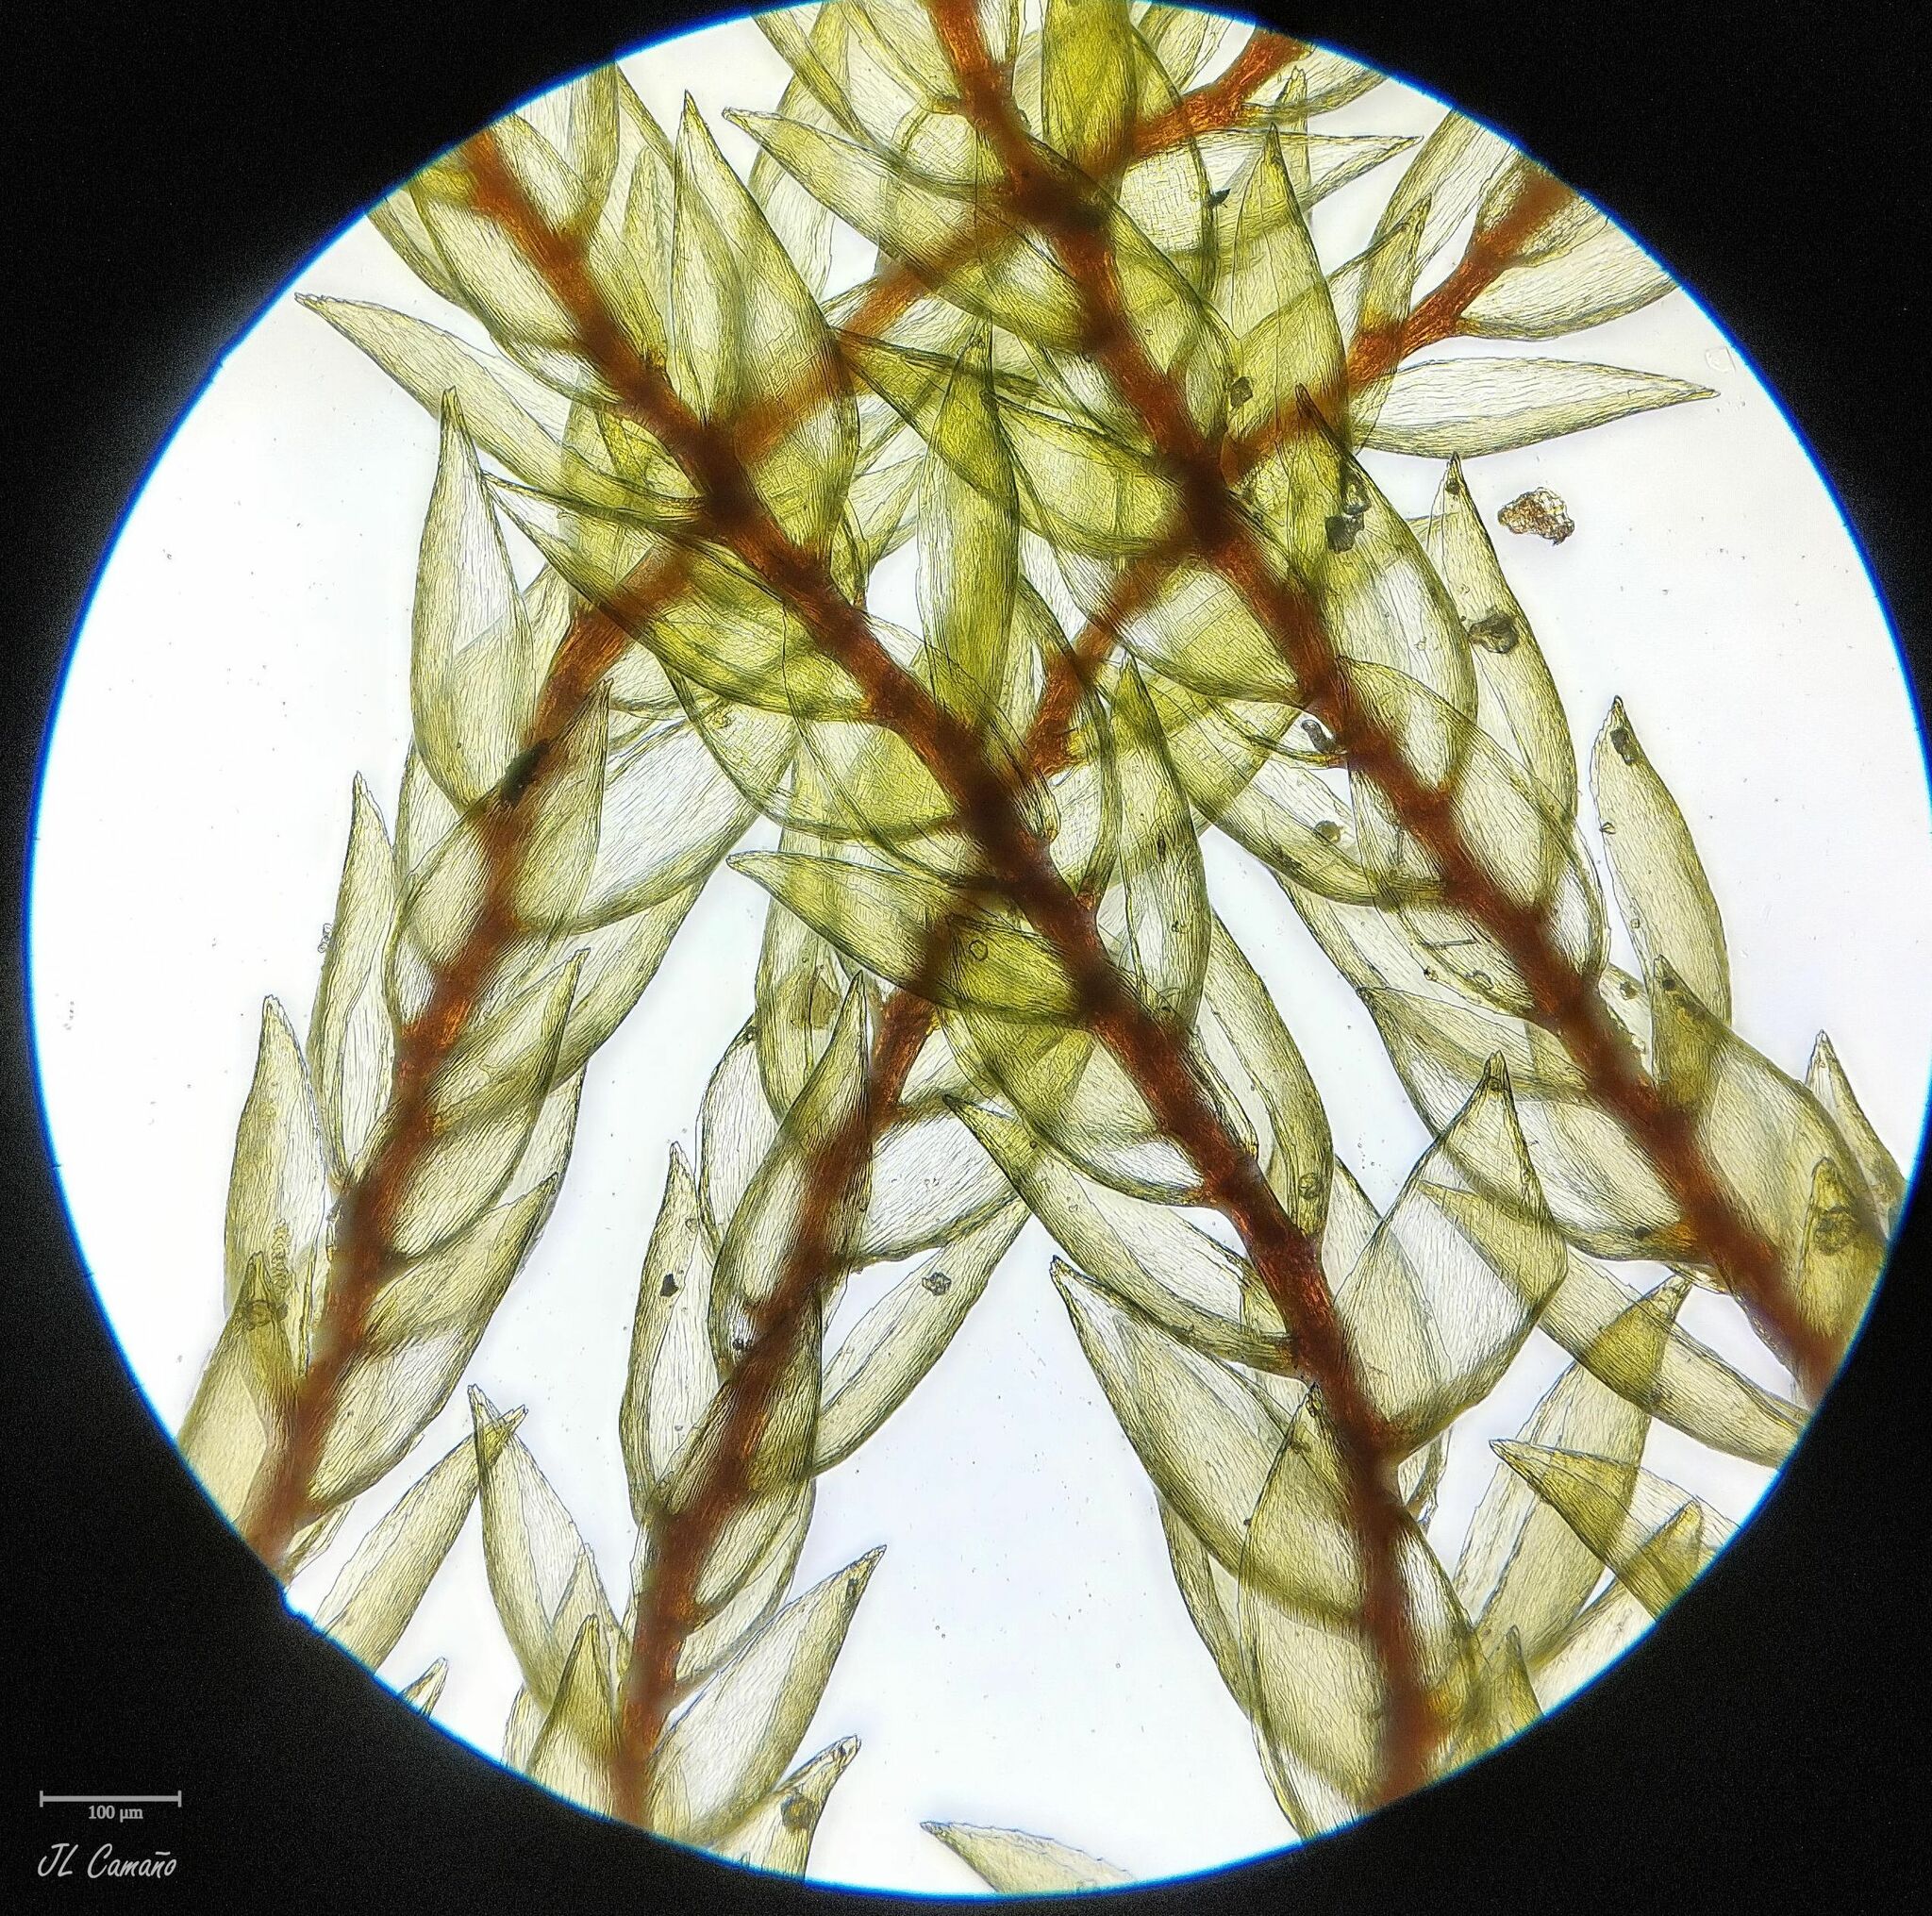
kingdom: Plantae
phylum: Bryophyta
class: Bryopsida
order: Hypnales
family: Hylocomiaceae
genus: Hylocomium
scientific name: Hylocomium splendens
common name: Stairstep moss
